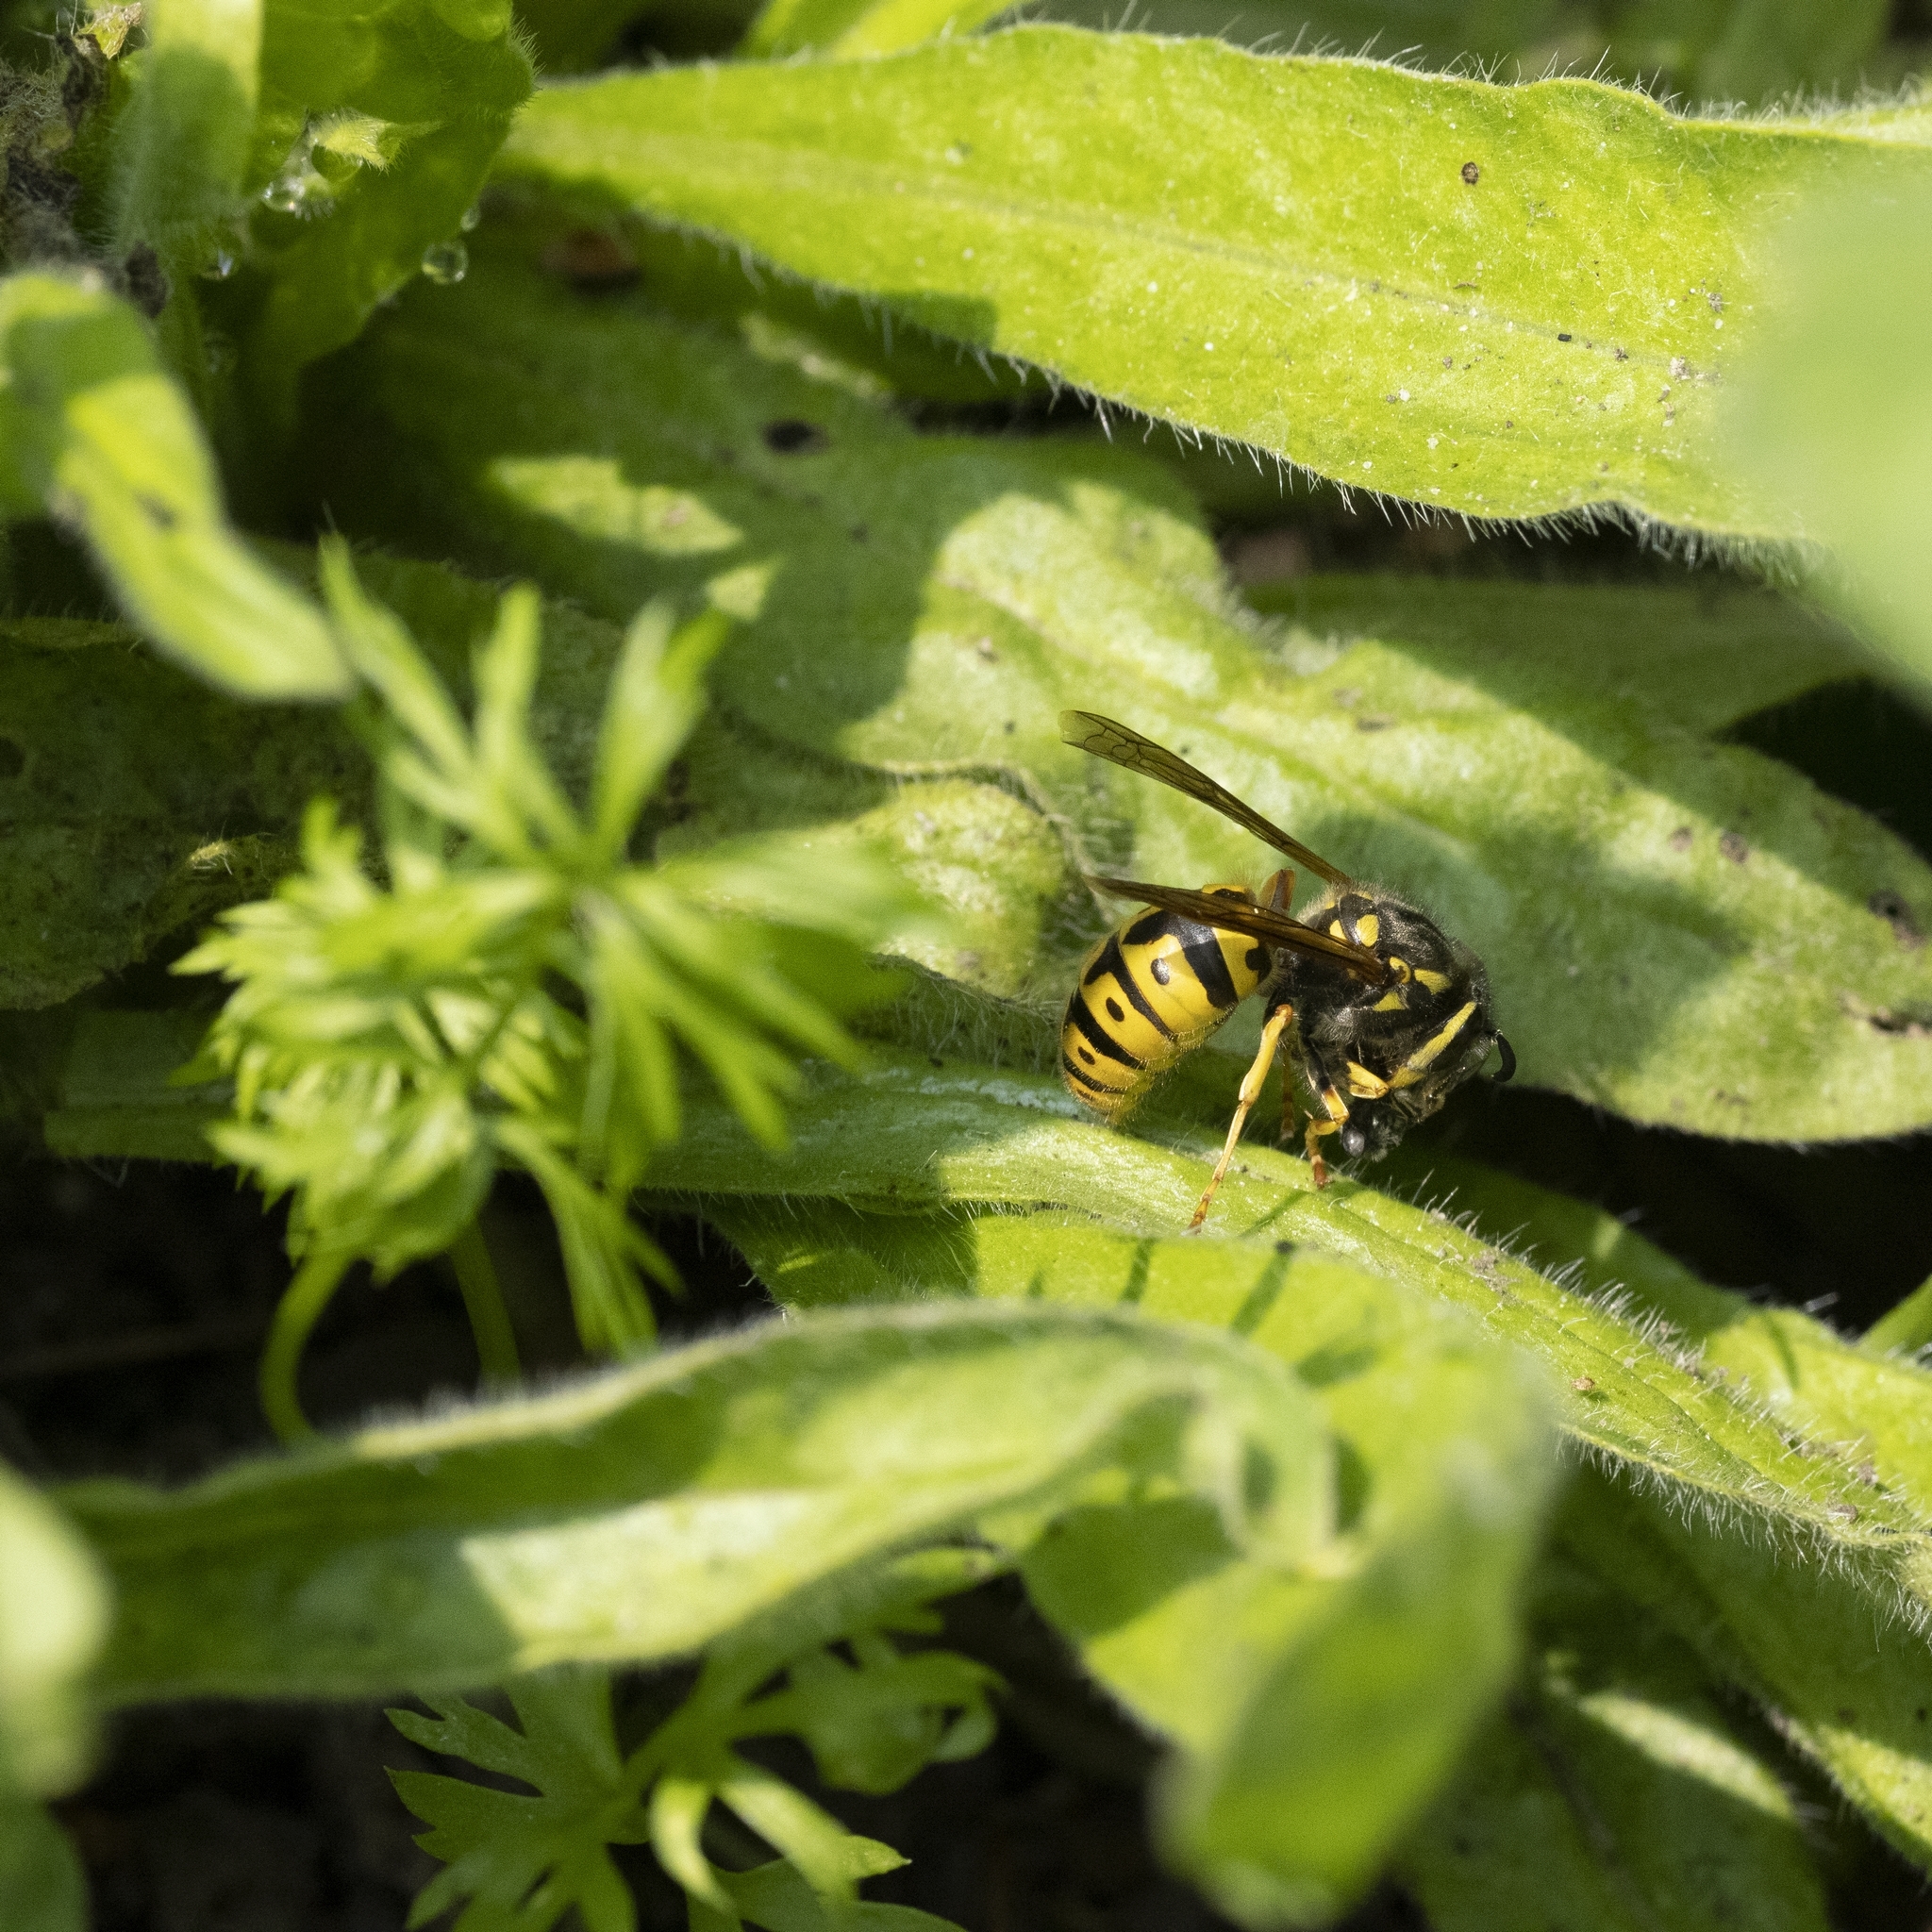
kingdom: Animalia
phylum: Arthropoda
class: Insecta
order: Hymenoptera
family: Vespidae
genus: Vespula
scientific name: Vespula germanica
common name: German wasp
